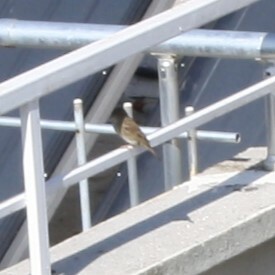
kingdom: Animalia
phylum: Chordata
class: Aves
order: Passeriformes
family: Passeridae
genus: Passer
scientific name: Passer domesticus
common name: House sparrow
